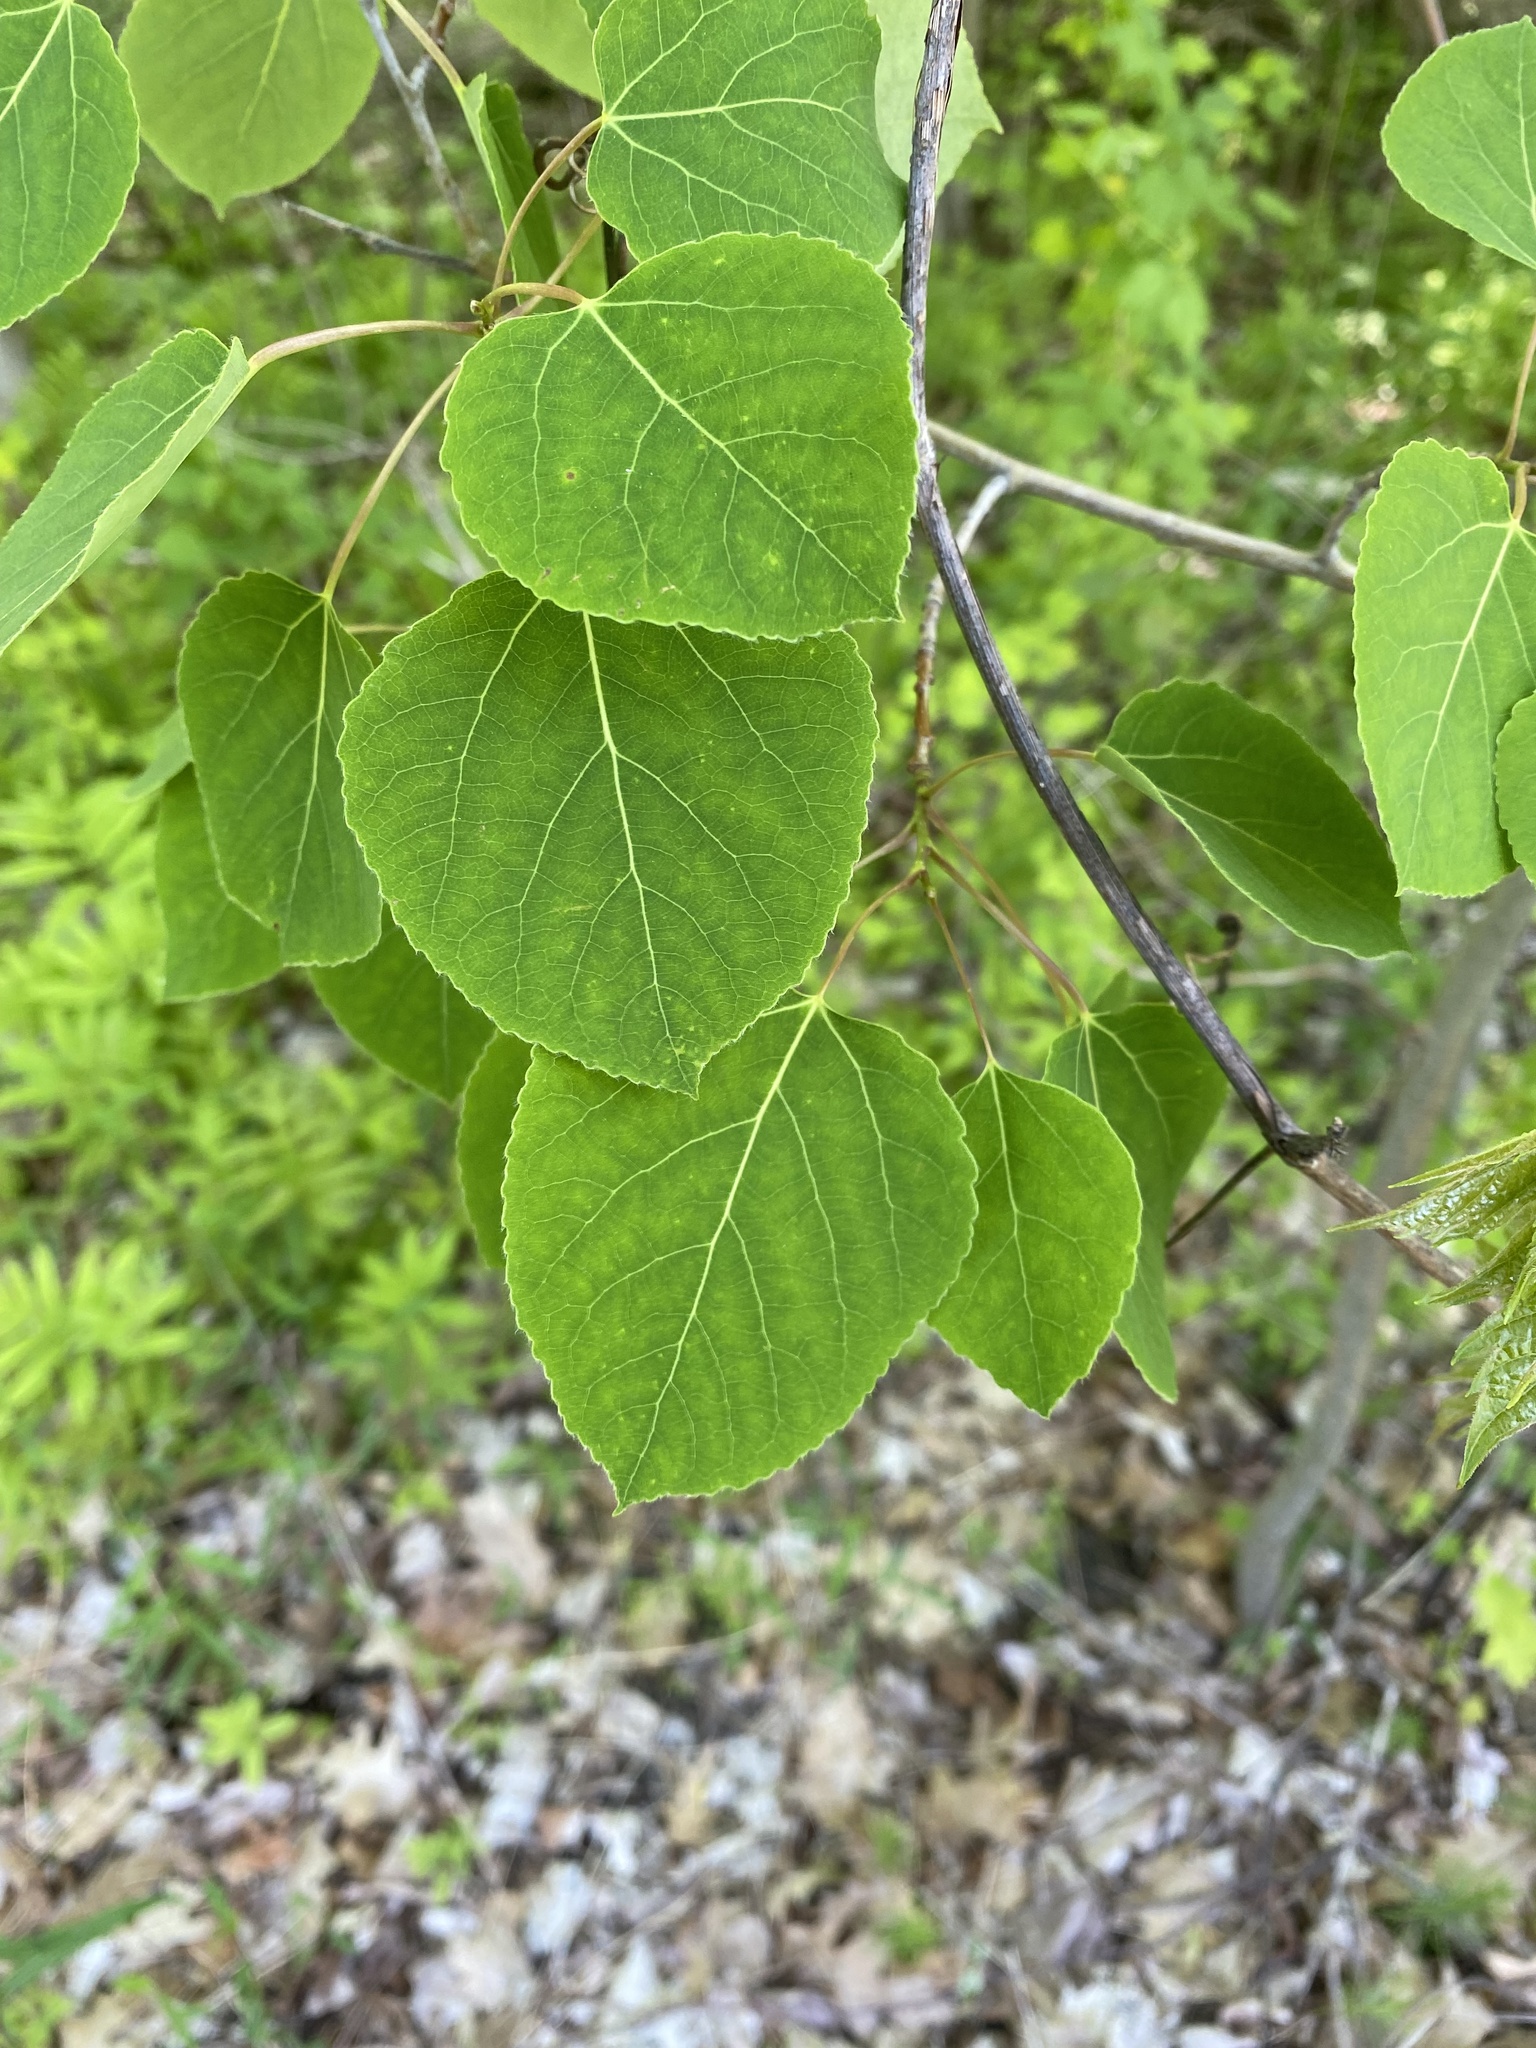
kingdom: Plantae
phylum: Tracheophyta
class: Magnoliopsida
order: Malpighiales
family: Salicaceae
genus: Populus
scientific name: Populus tremuloides
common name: Quaking aspen
